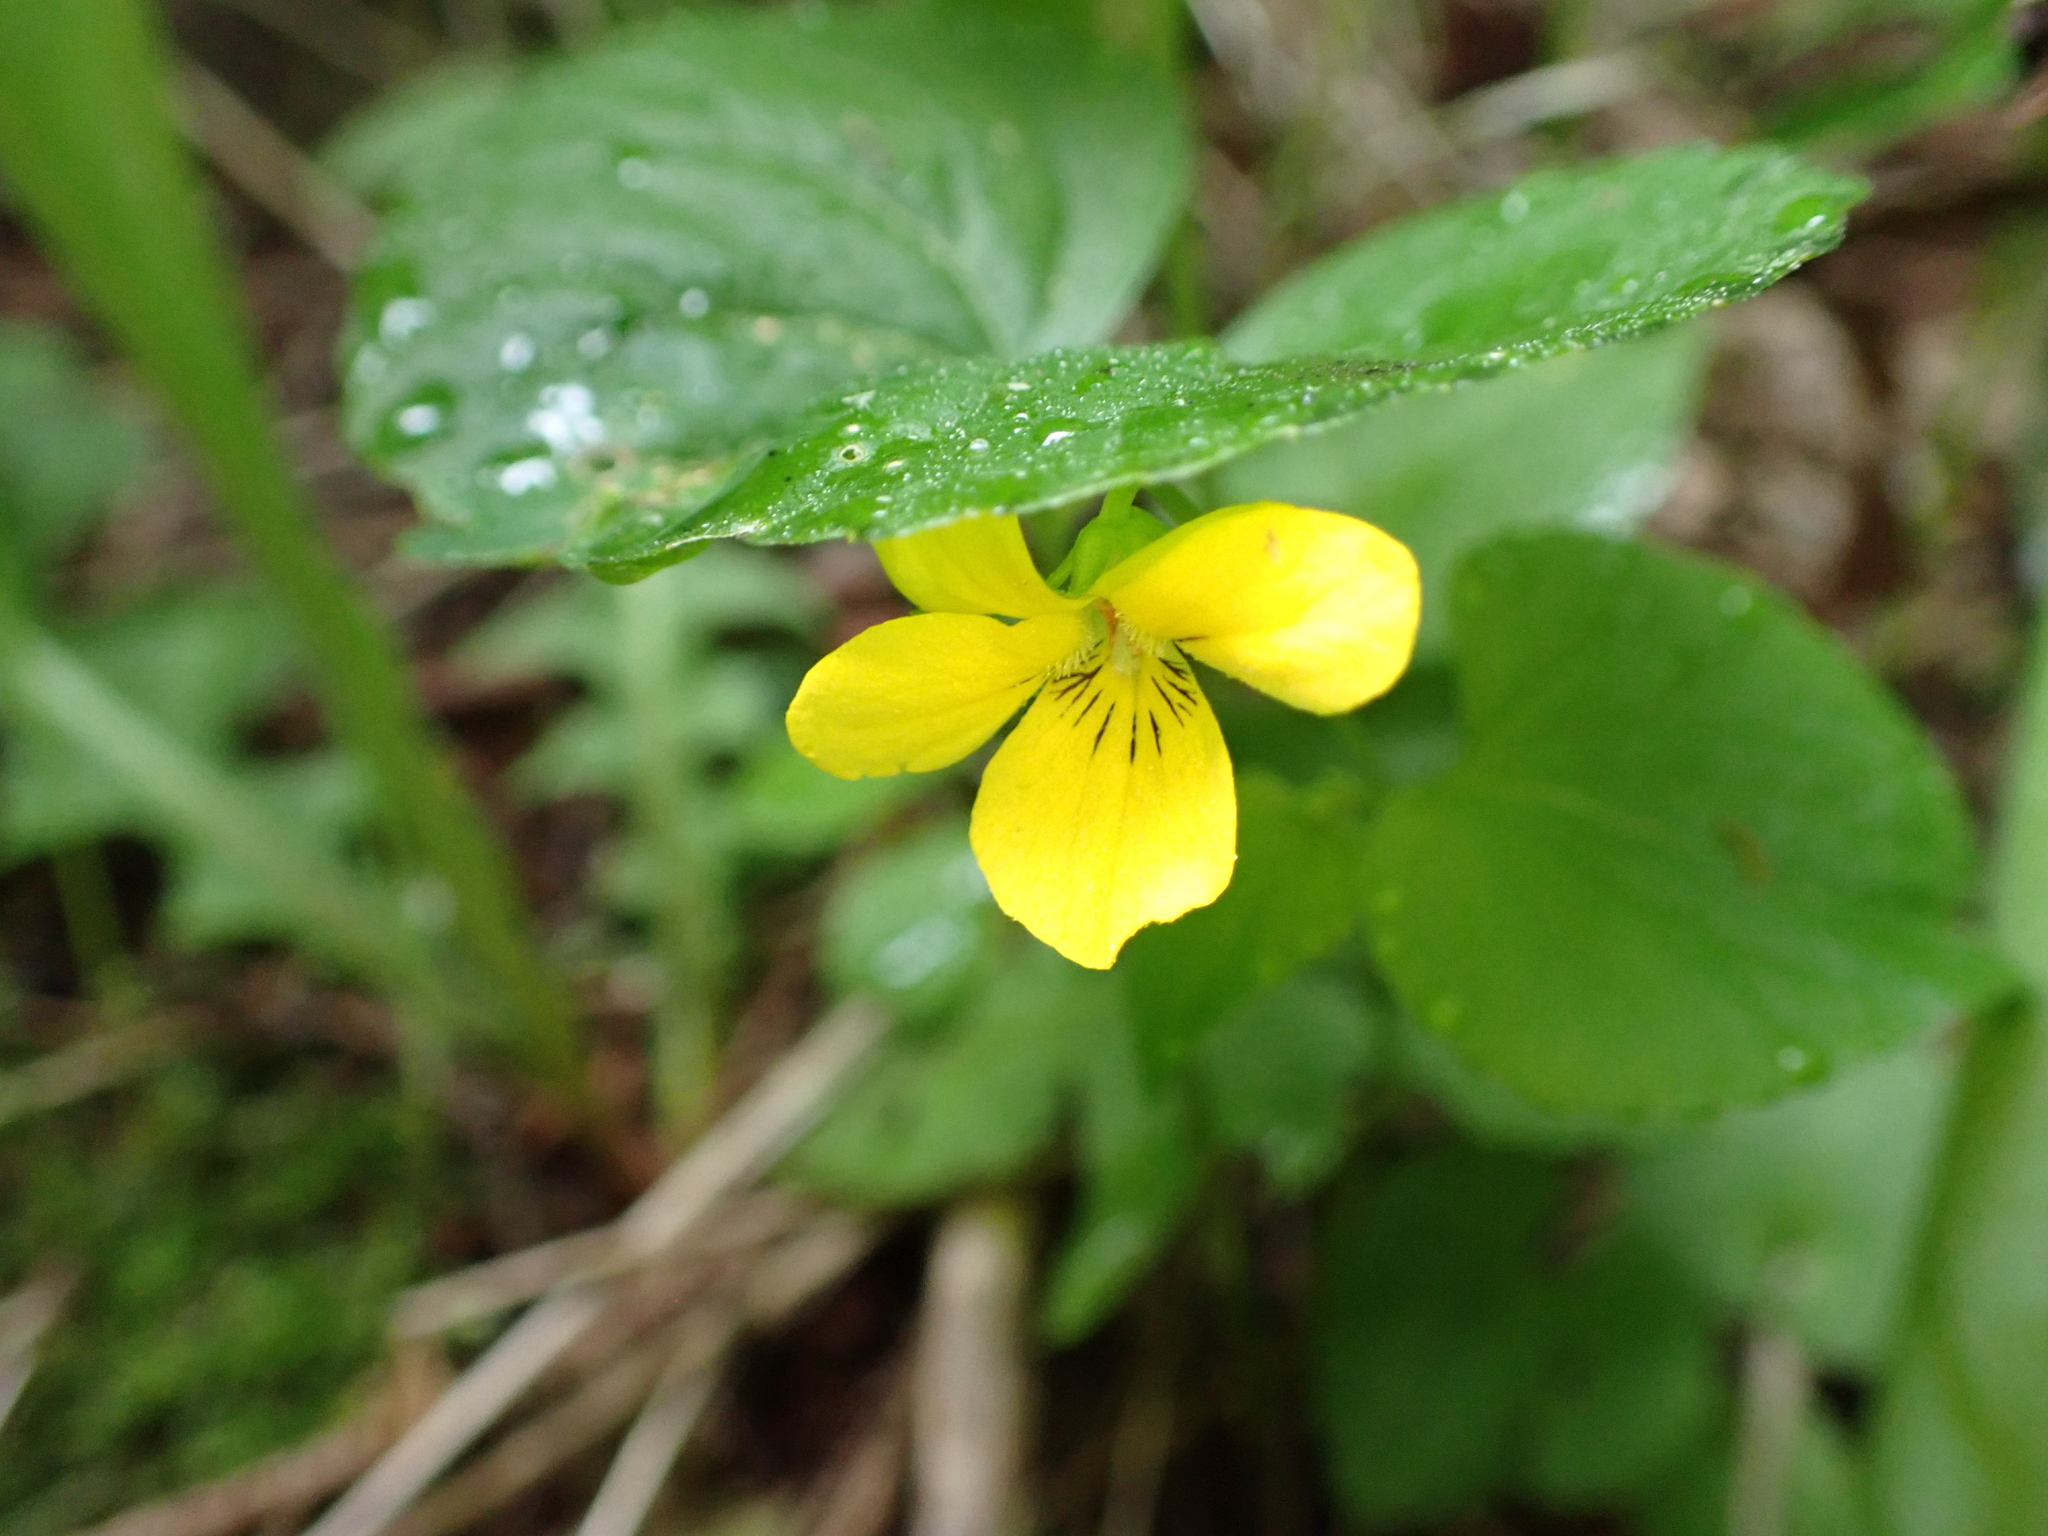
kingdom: Plantae
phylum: Tracheophyta
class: Magnoliopsida
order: Malpighiales
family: Violaceae
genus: Viola
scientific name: Viola glabella
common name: Stream violet
